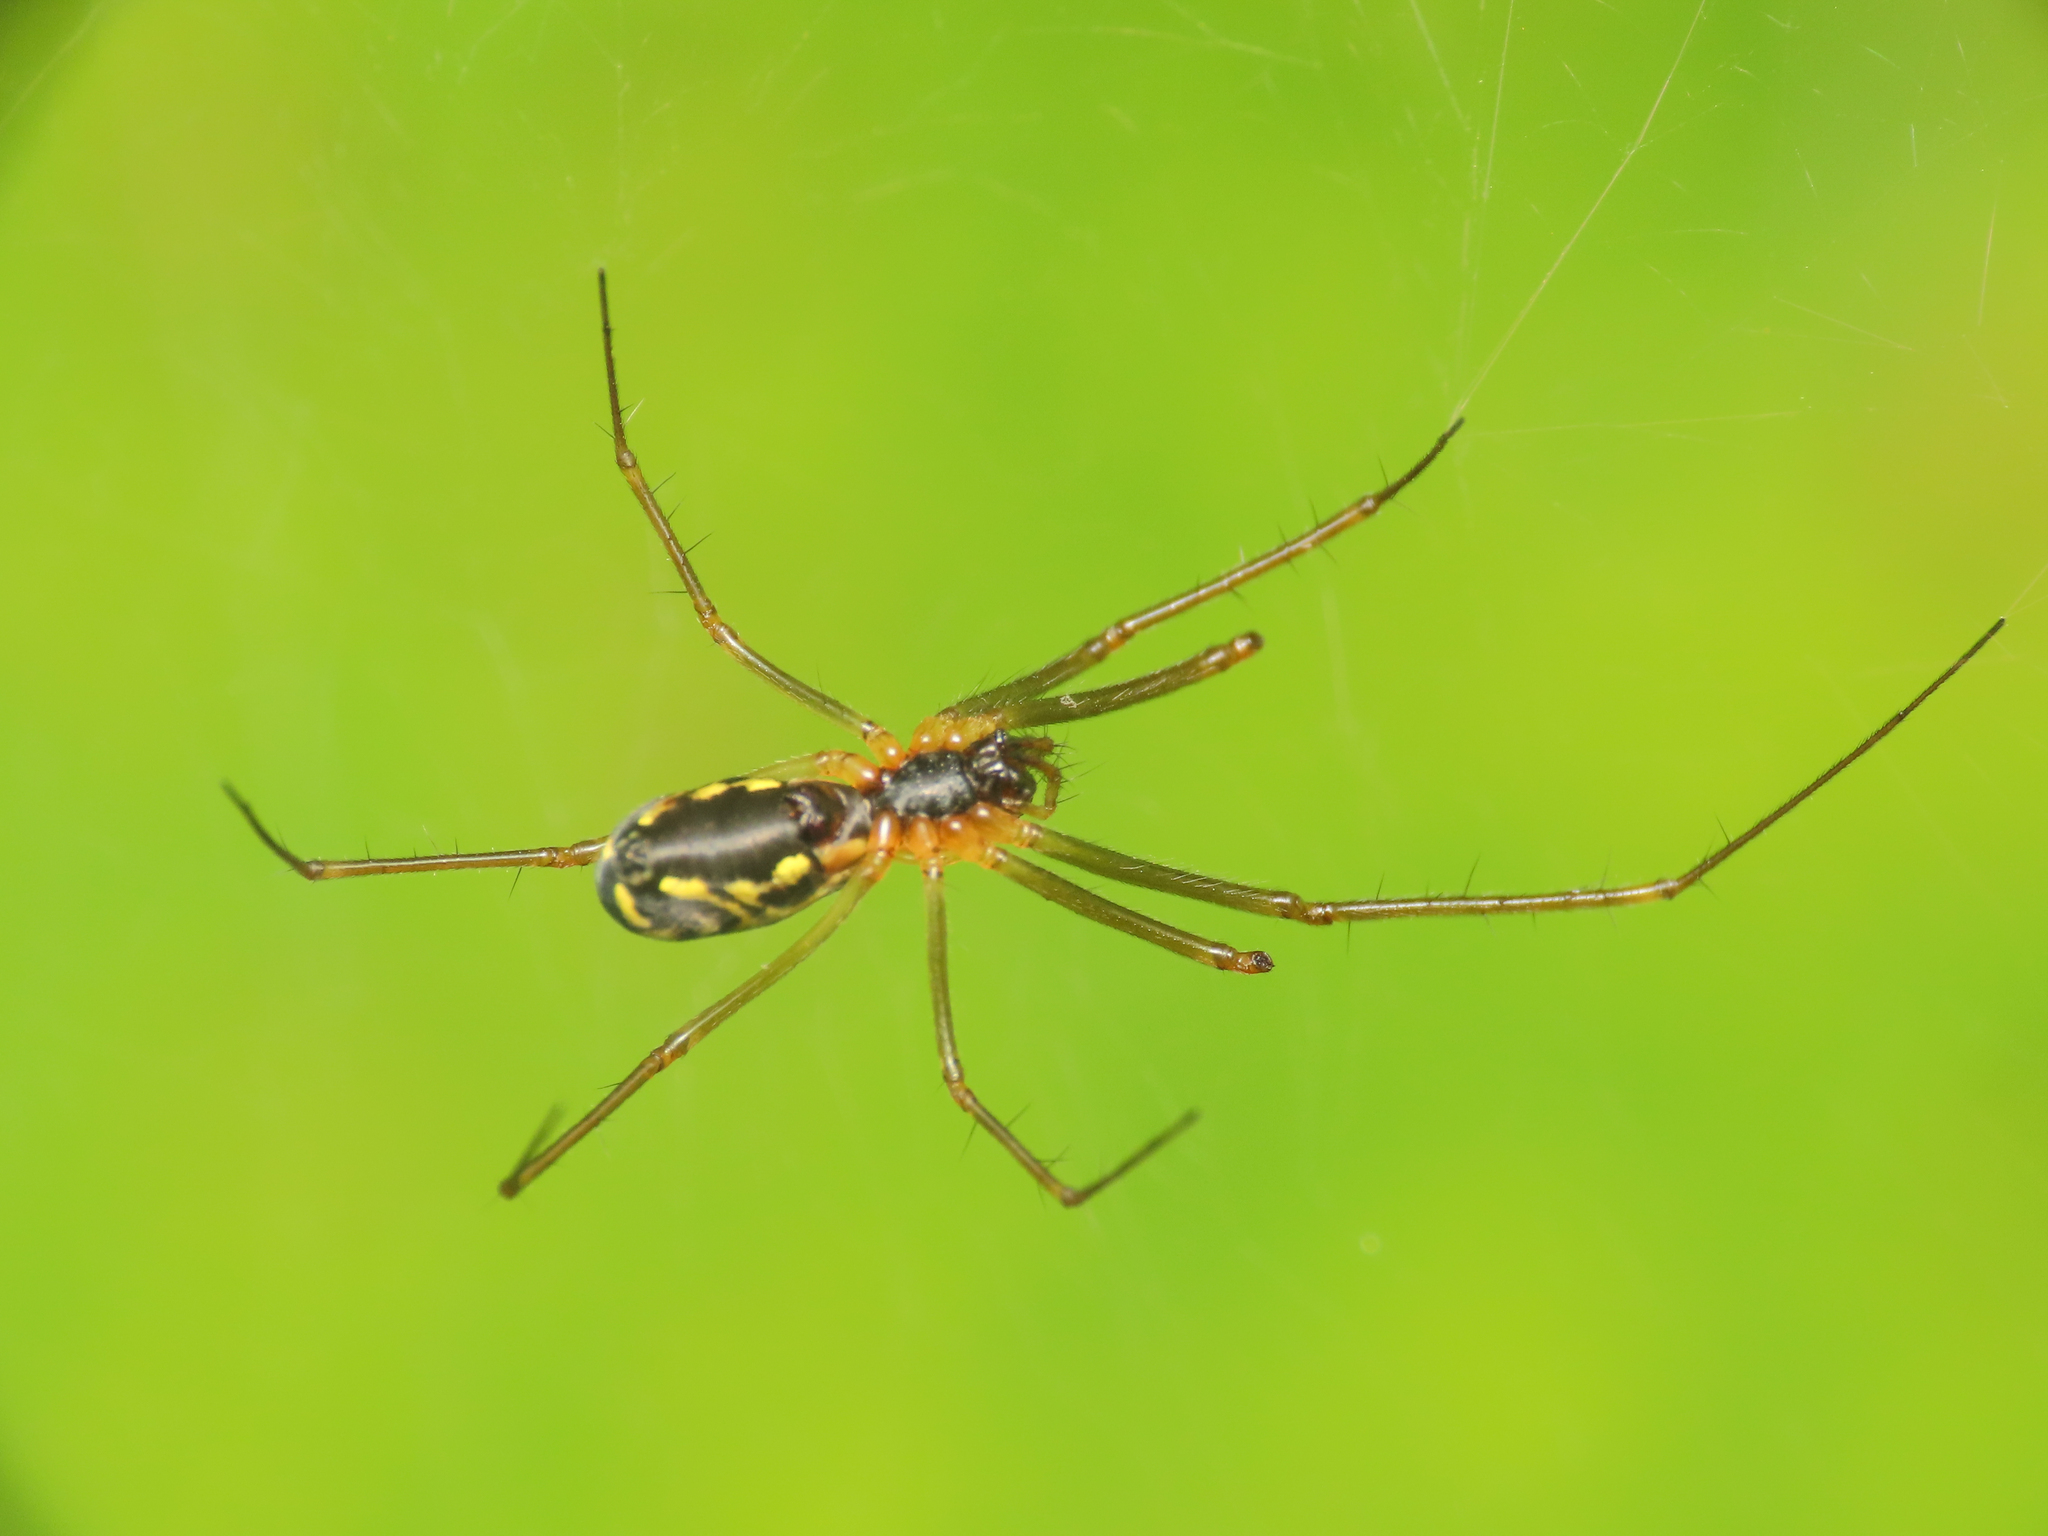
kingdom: Animalia
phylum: Arthropoda
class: Arachnida
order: Araneae
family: Linyphiidae
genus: Neriene
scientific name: Neriene radiata
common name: Filmy dome spider
